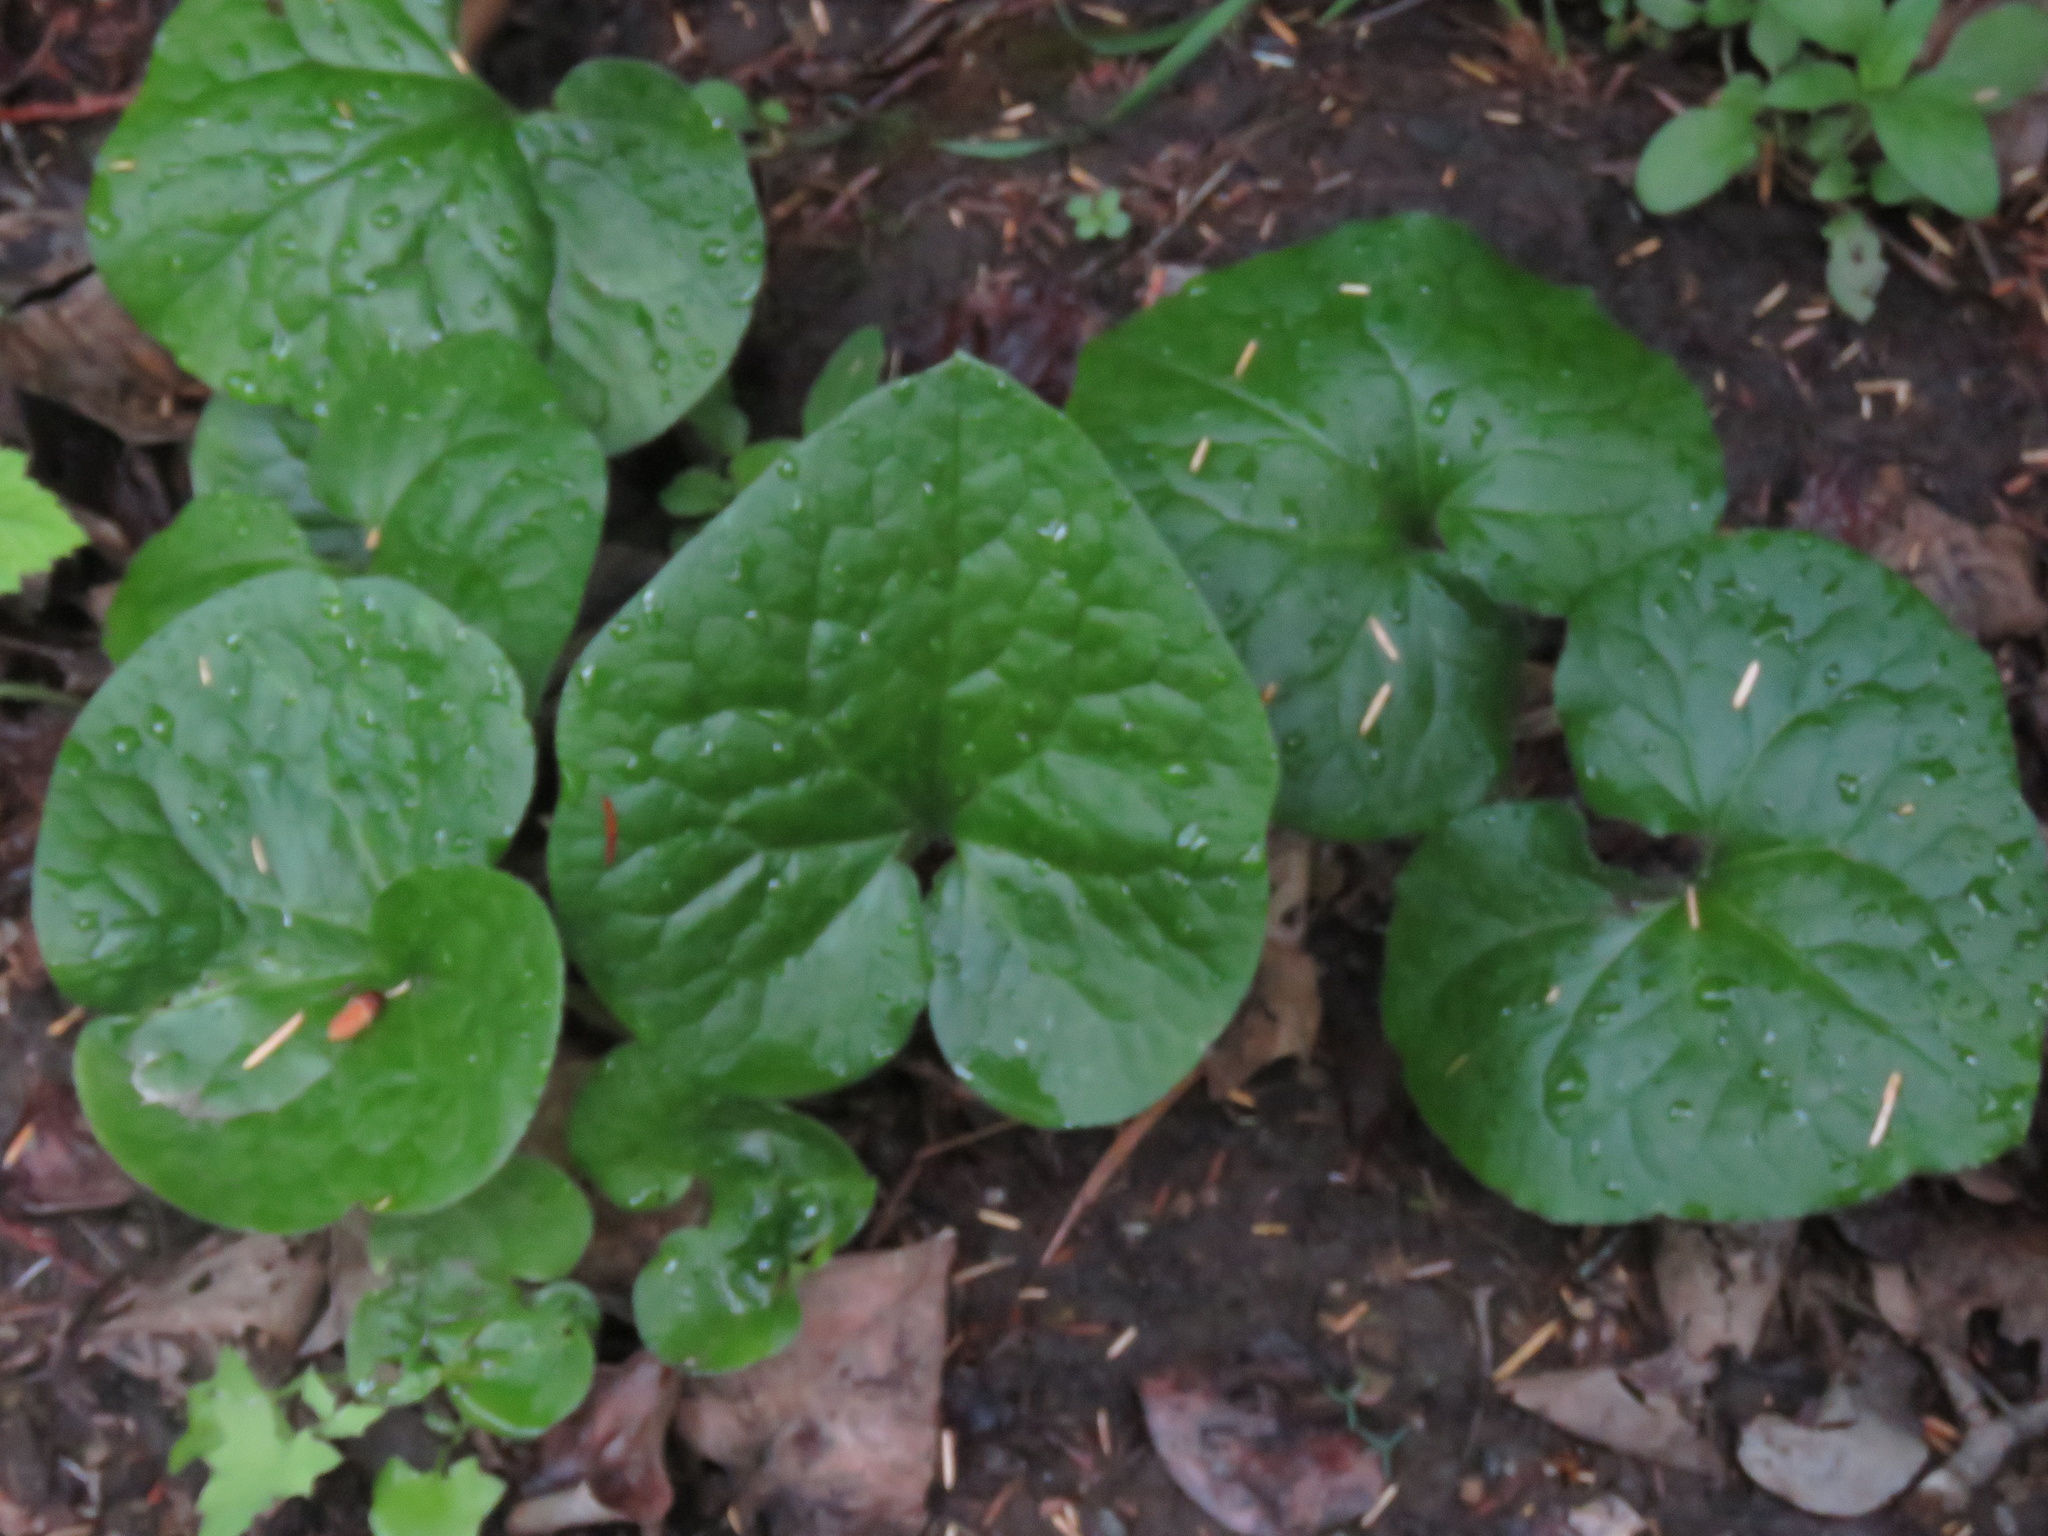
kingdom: Plantae
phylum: Tracheophyta
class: Magnoliopsida
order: Piperales
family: Aristolochiaceae
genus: Asarum
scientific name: Asarum caudatum
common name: Wild ginger
